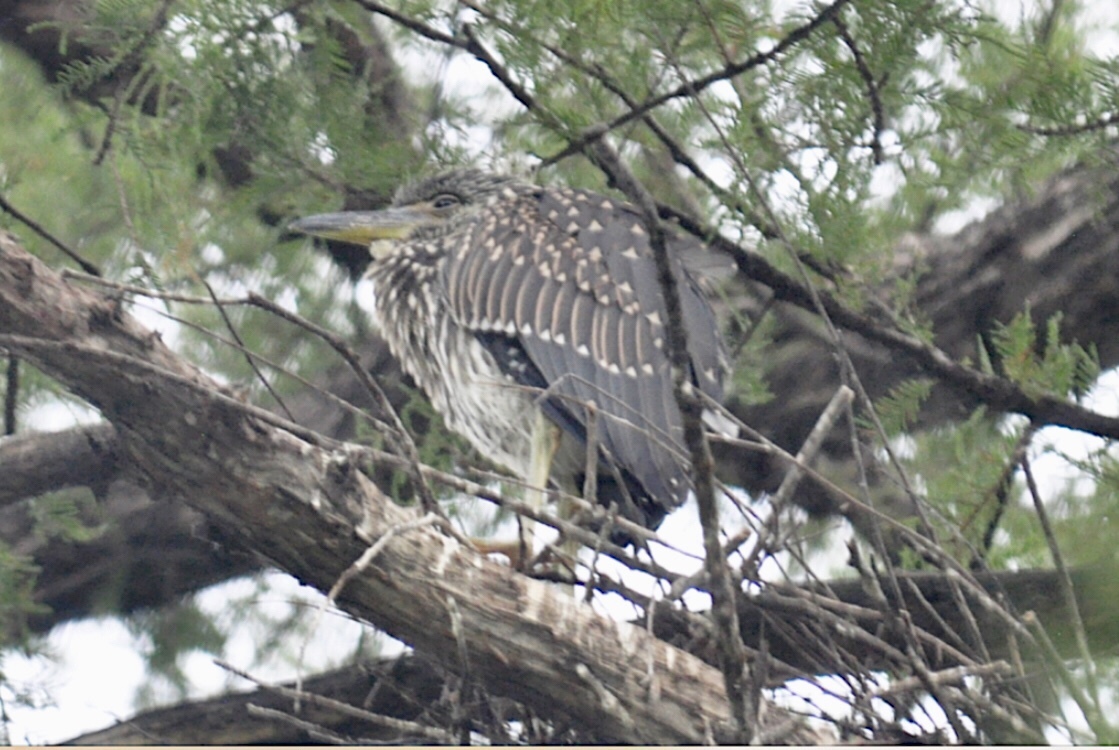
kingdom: Animalia
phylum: Chordata
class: Aves
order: Pelecaniformes
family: Ardeidae
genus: Nyctanassa
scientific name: Nyctanassa violacea
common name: Yellow-crowned night heron
